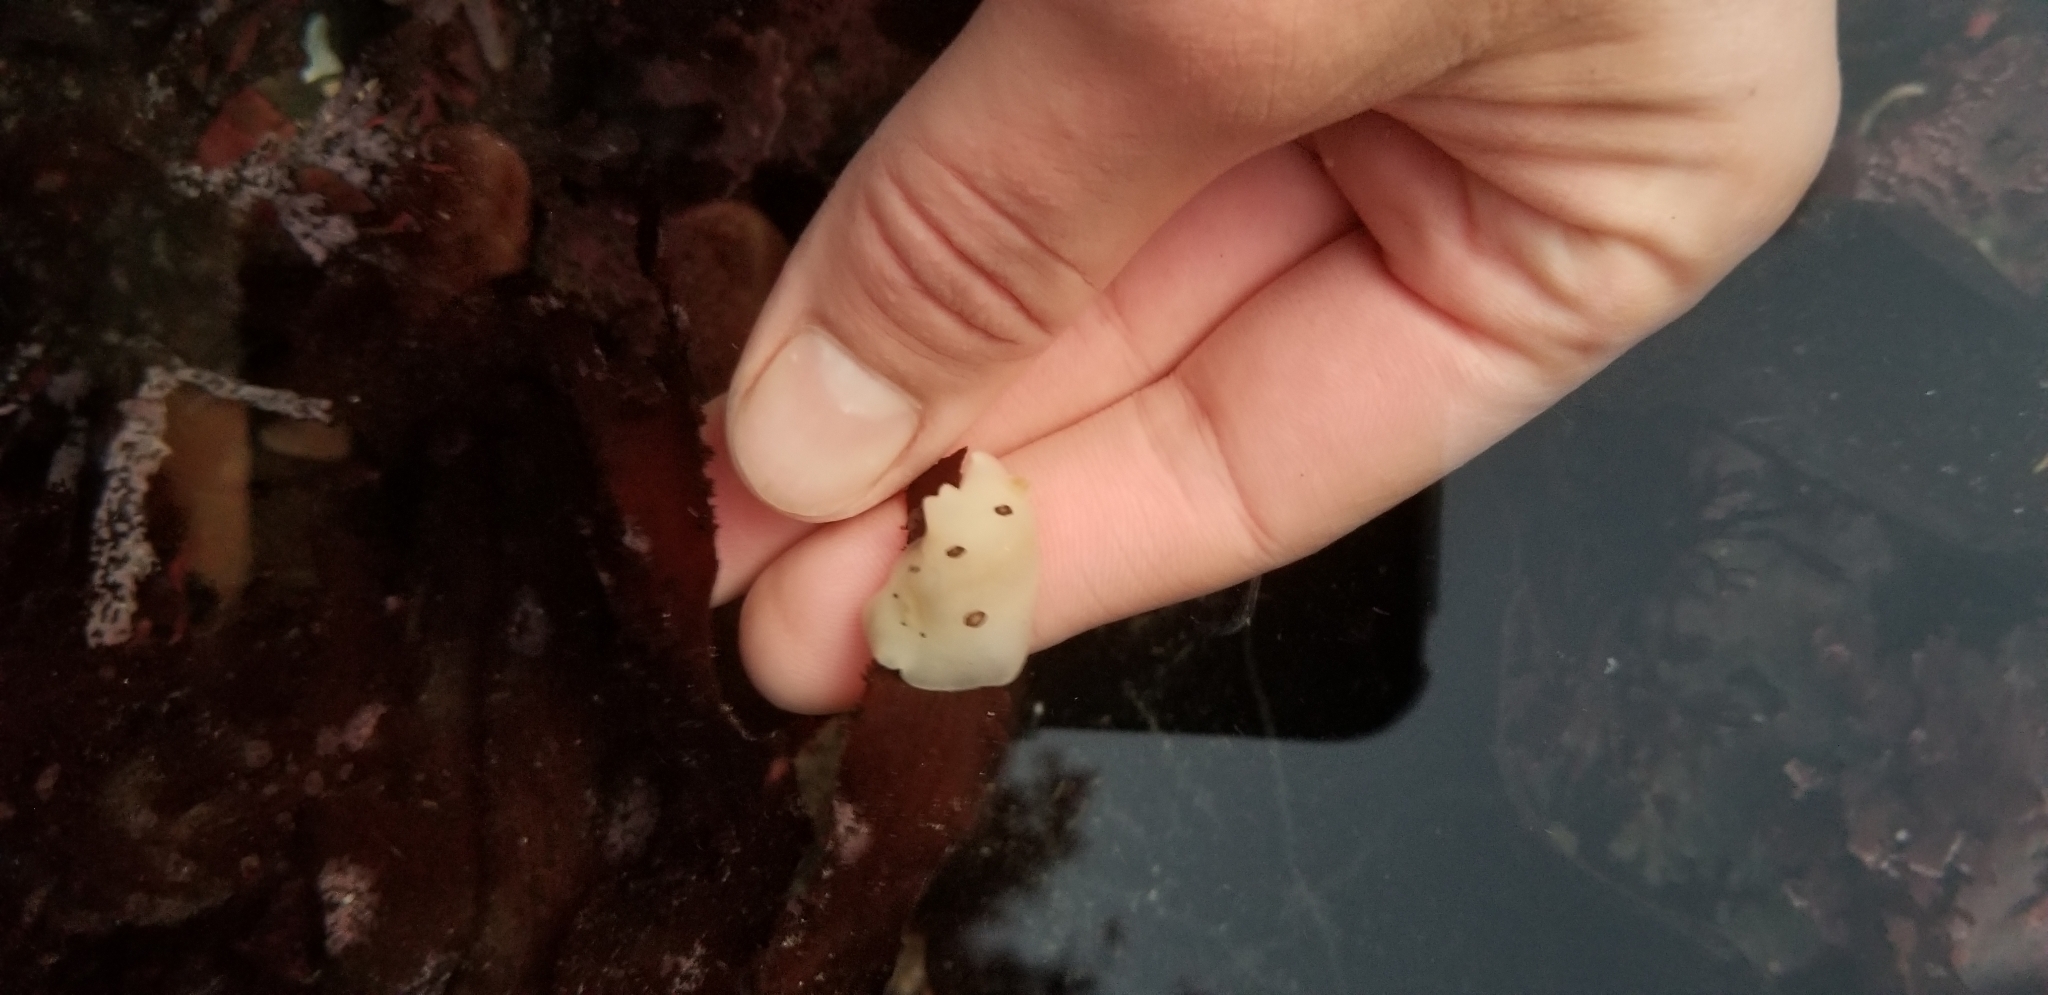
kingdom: Animalia
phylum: Mollusca
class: Gastropoda
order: Nudibranchia
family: Discodorididae
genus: Diaulula
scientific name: Diaulula sandiegensis
